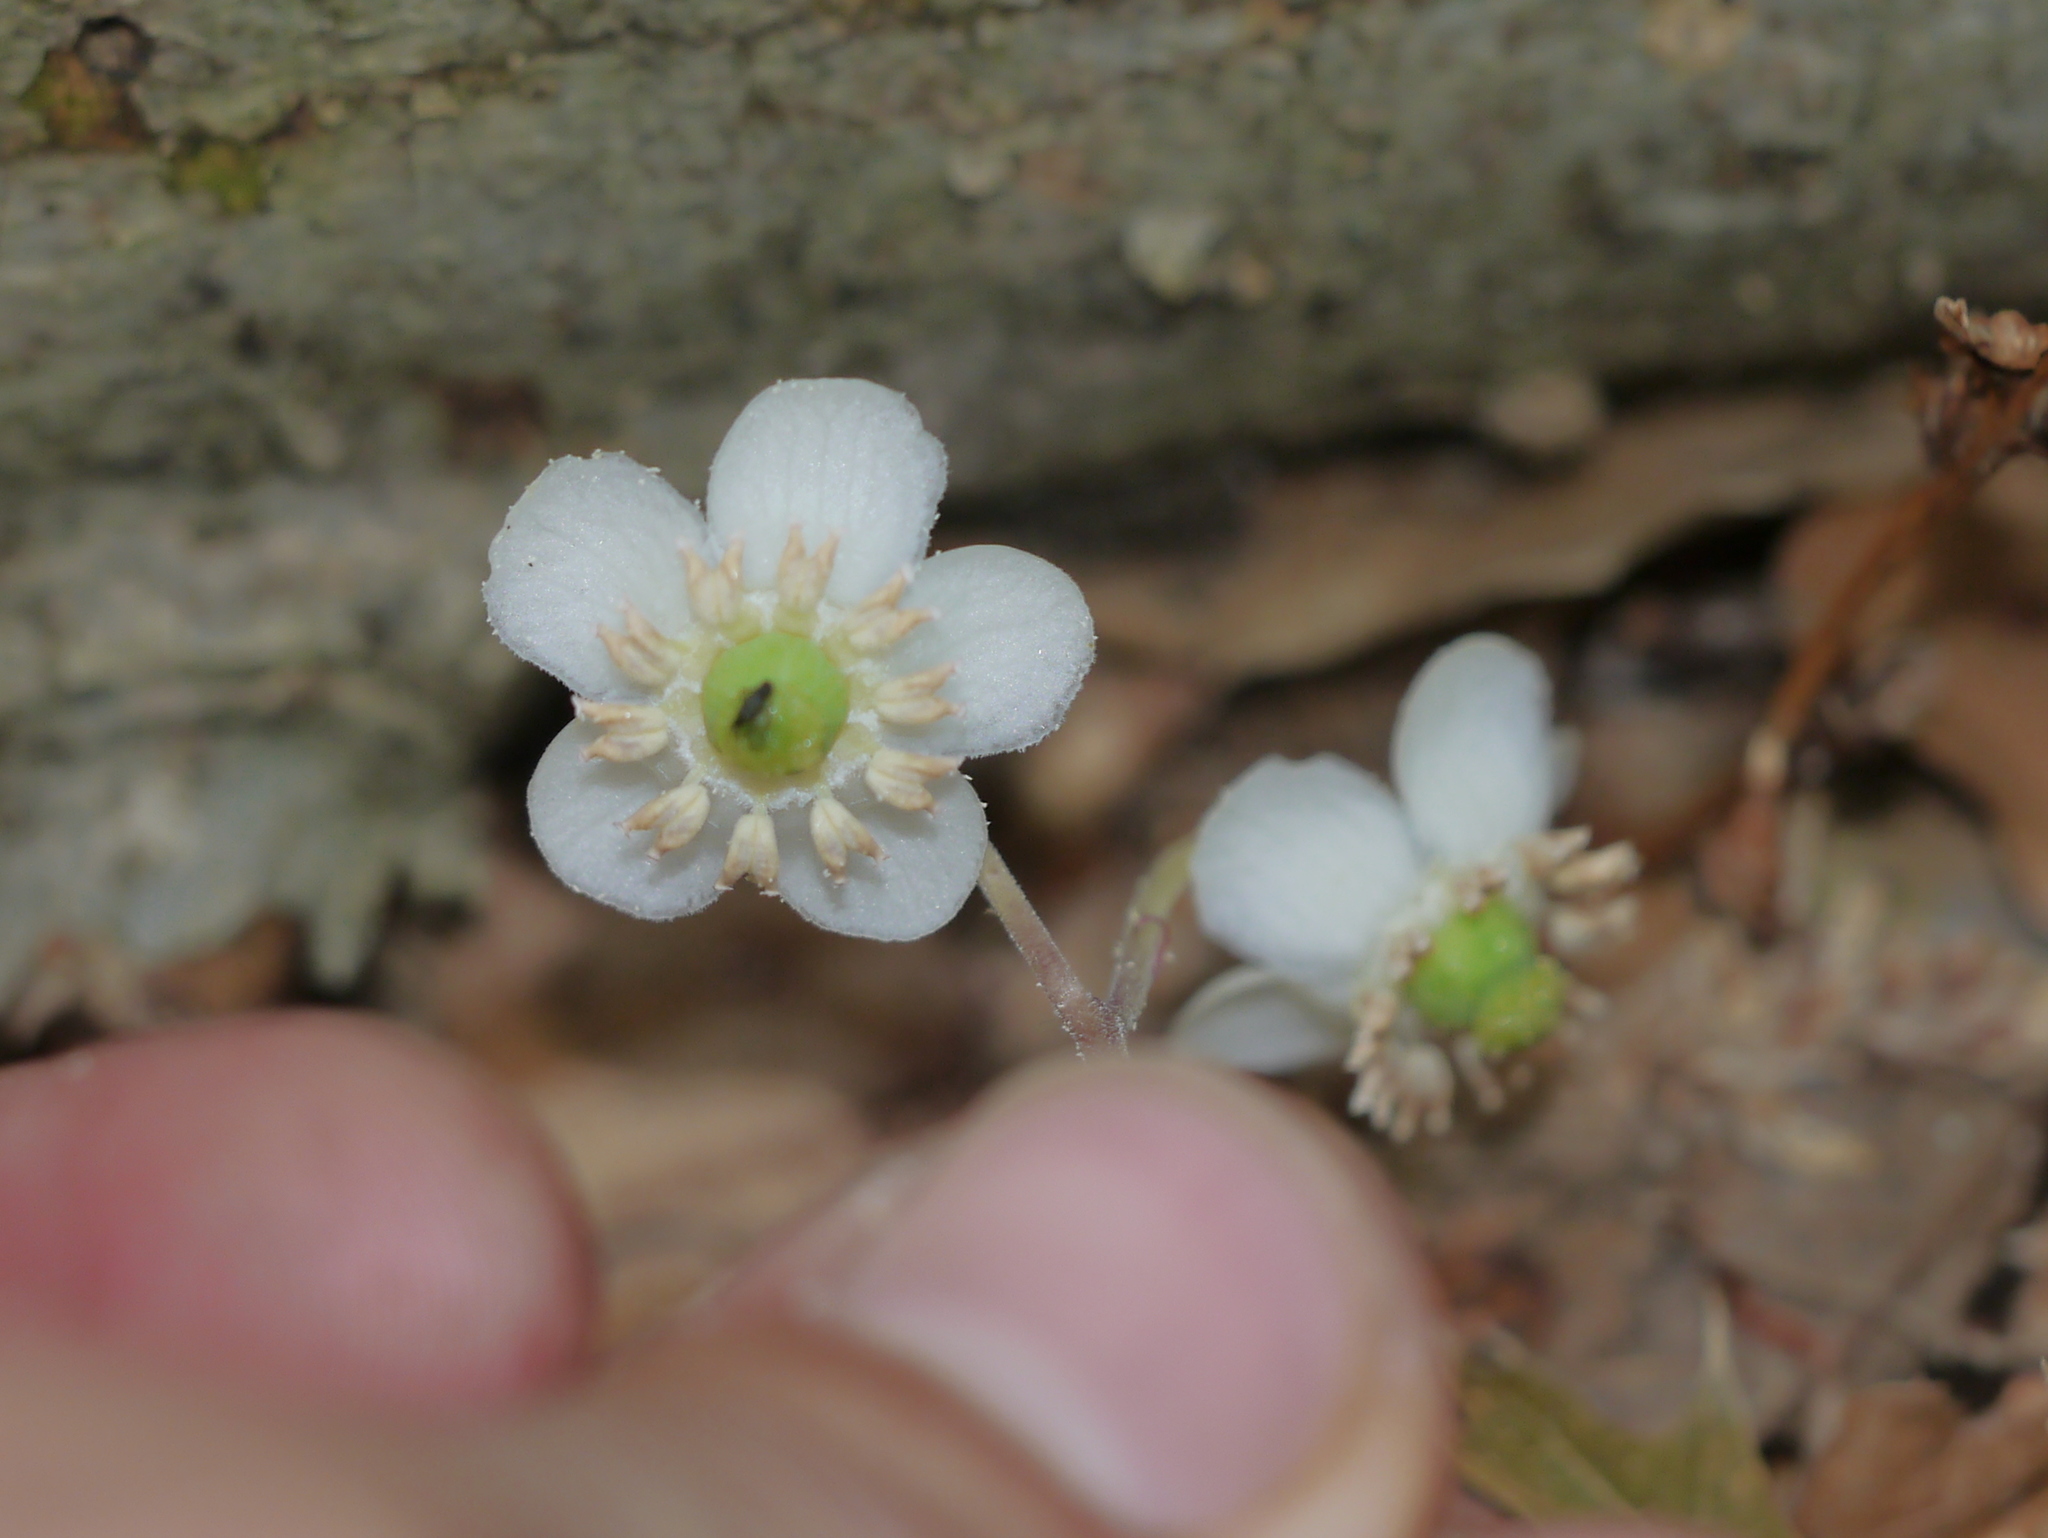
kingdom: Plantae
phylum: Tracheophyta
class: Magnoliopsida
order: Ericales
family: Ericaceae
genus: Chimaphila
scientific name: Chimaphila maculata
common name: Spotted pipsissewa
